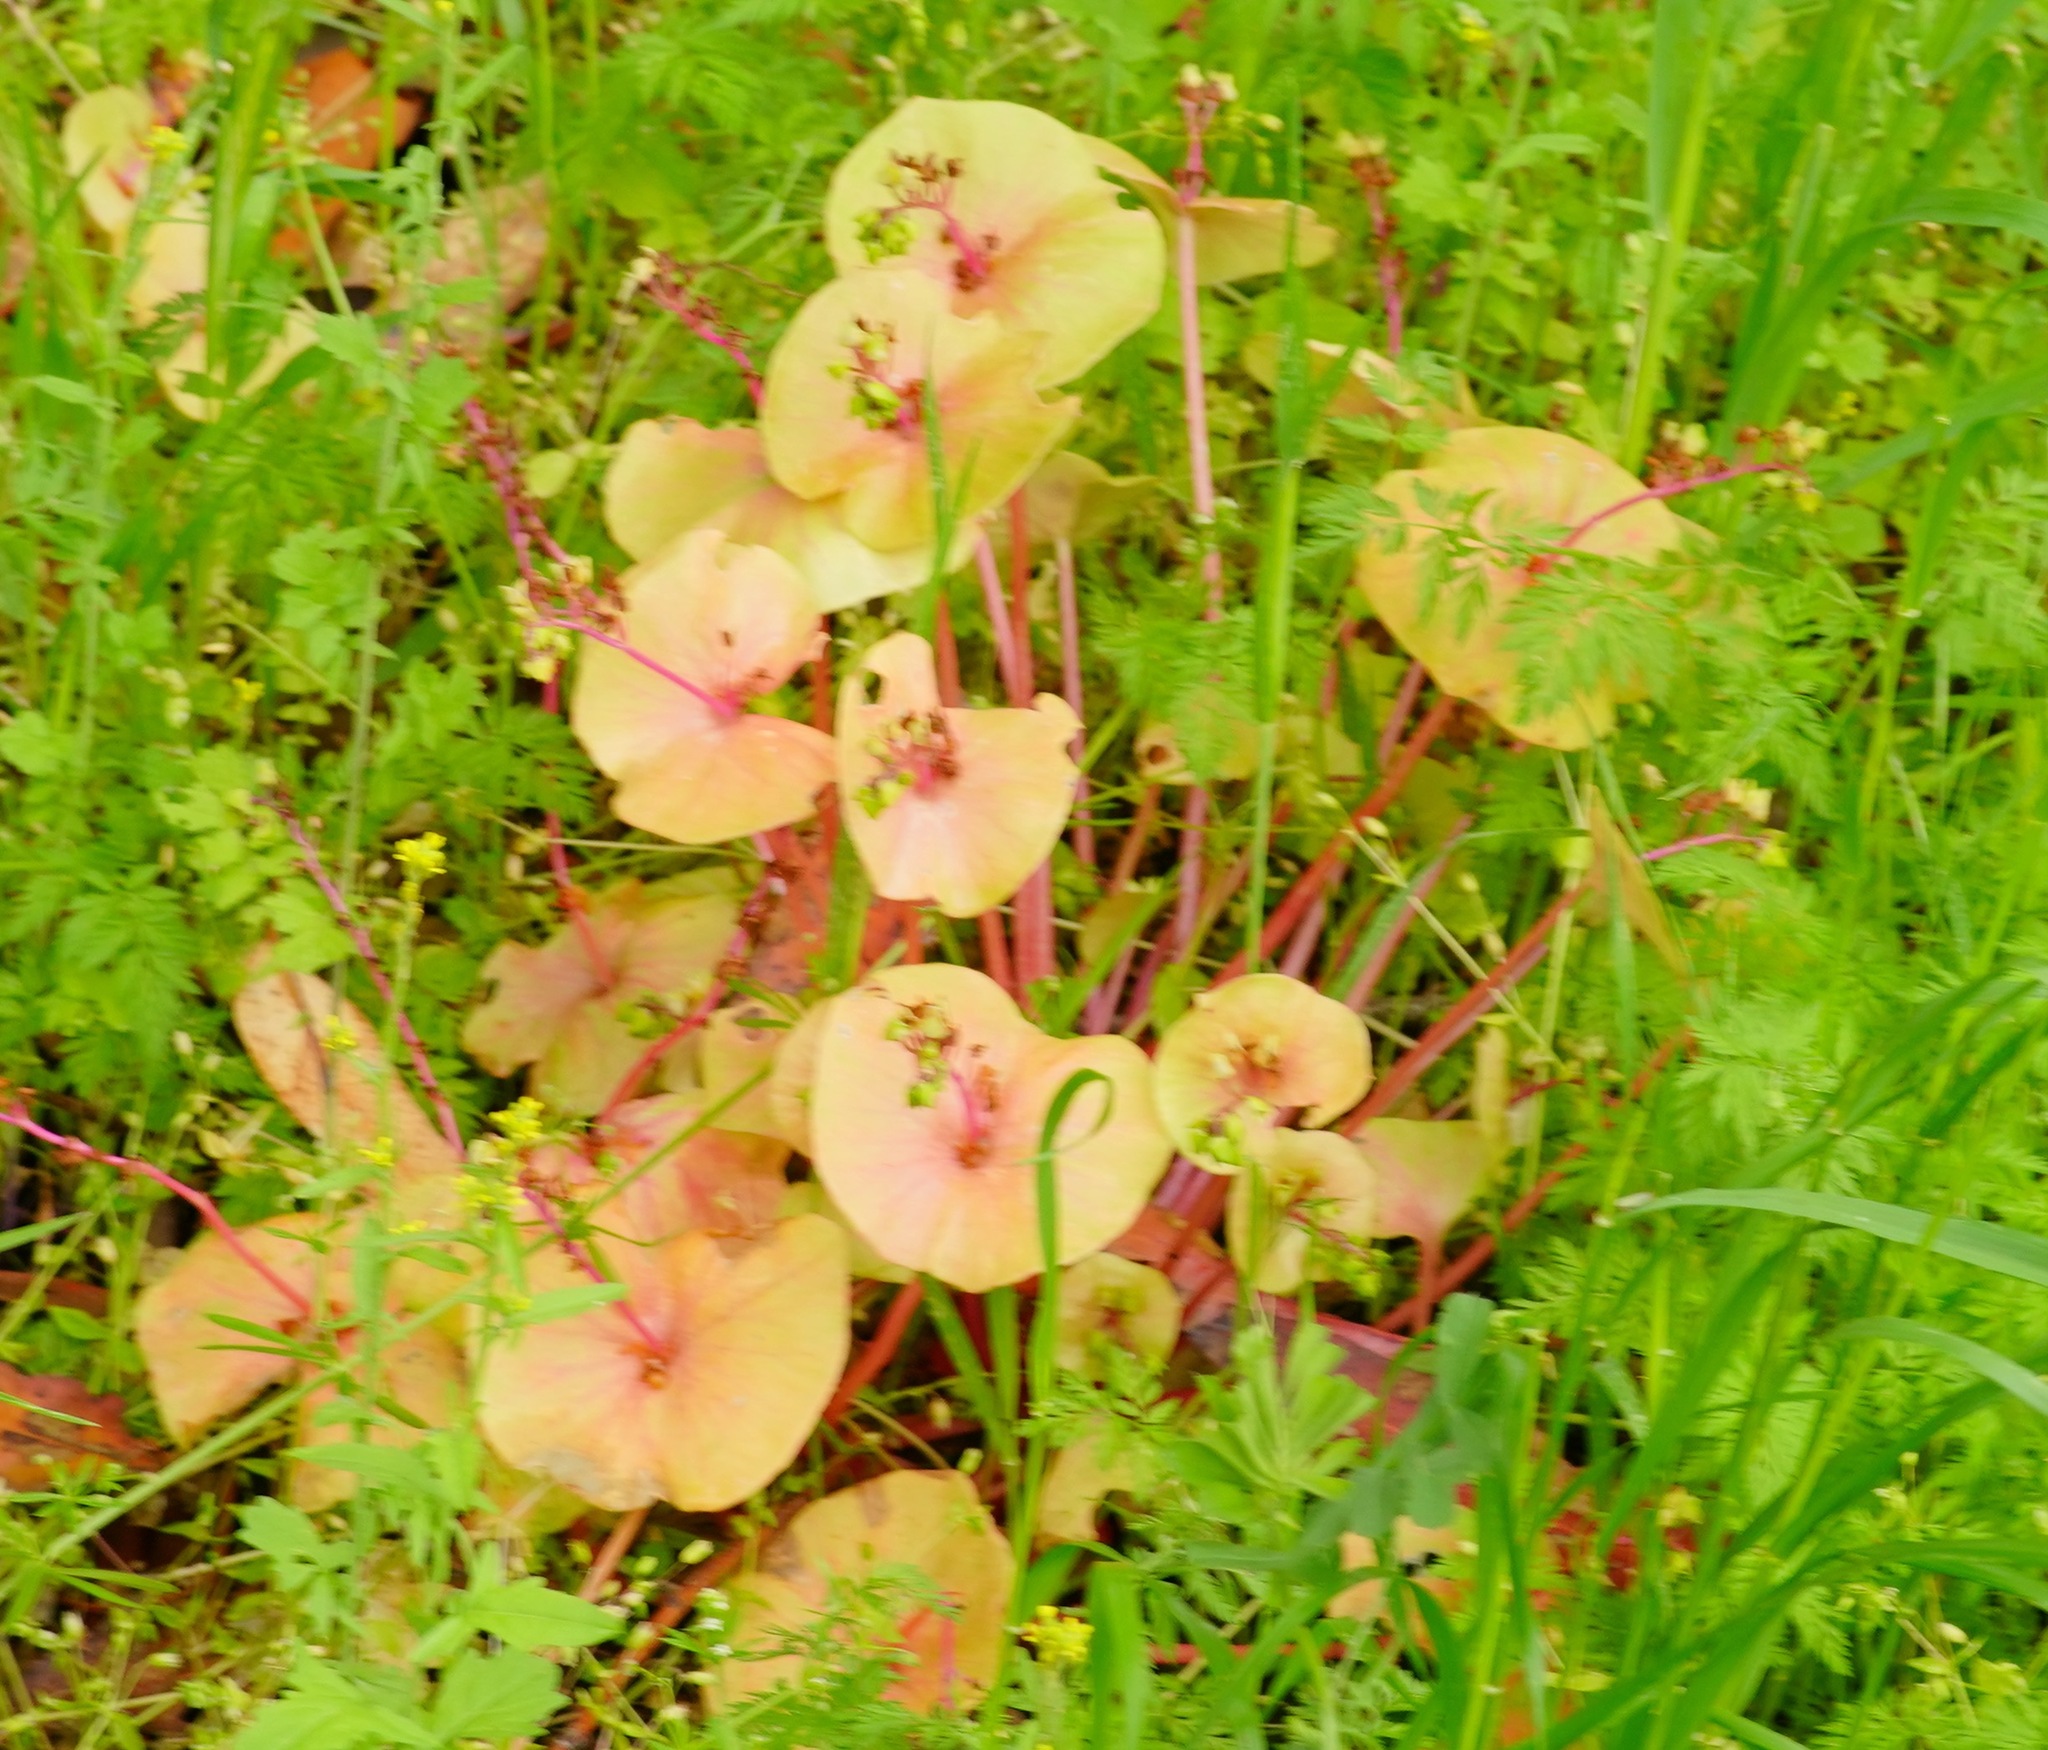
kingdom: Plantae
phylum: Tracheophyta
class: Magnoliopsida
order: Caryophyllales
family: Montiaceae
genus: Claytonia
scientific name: Claytonia perfoliata
